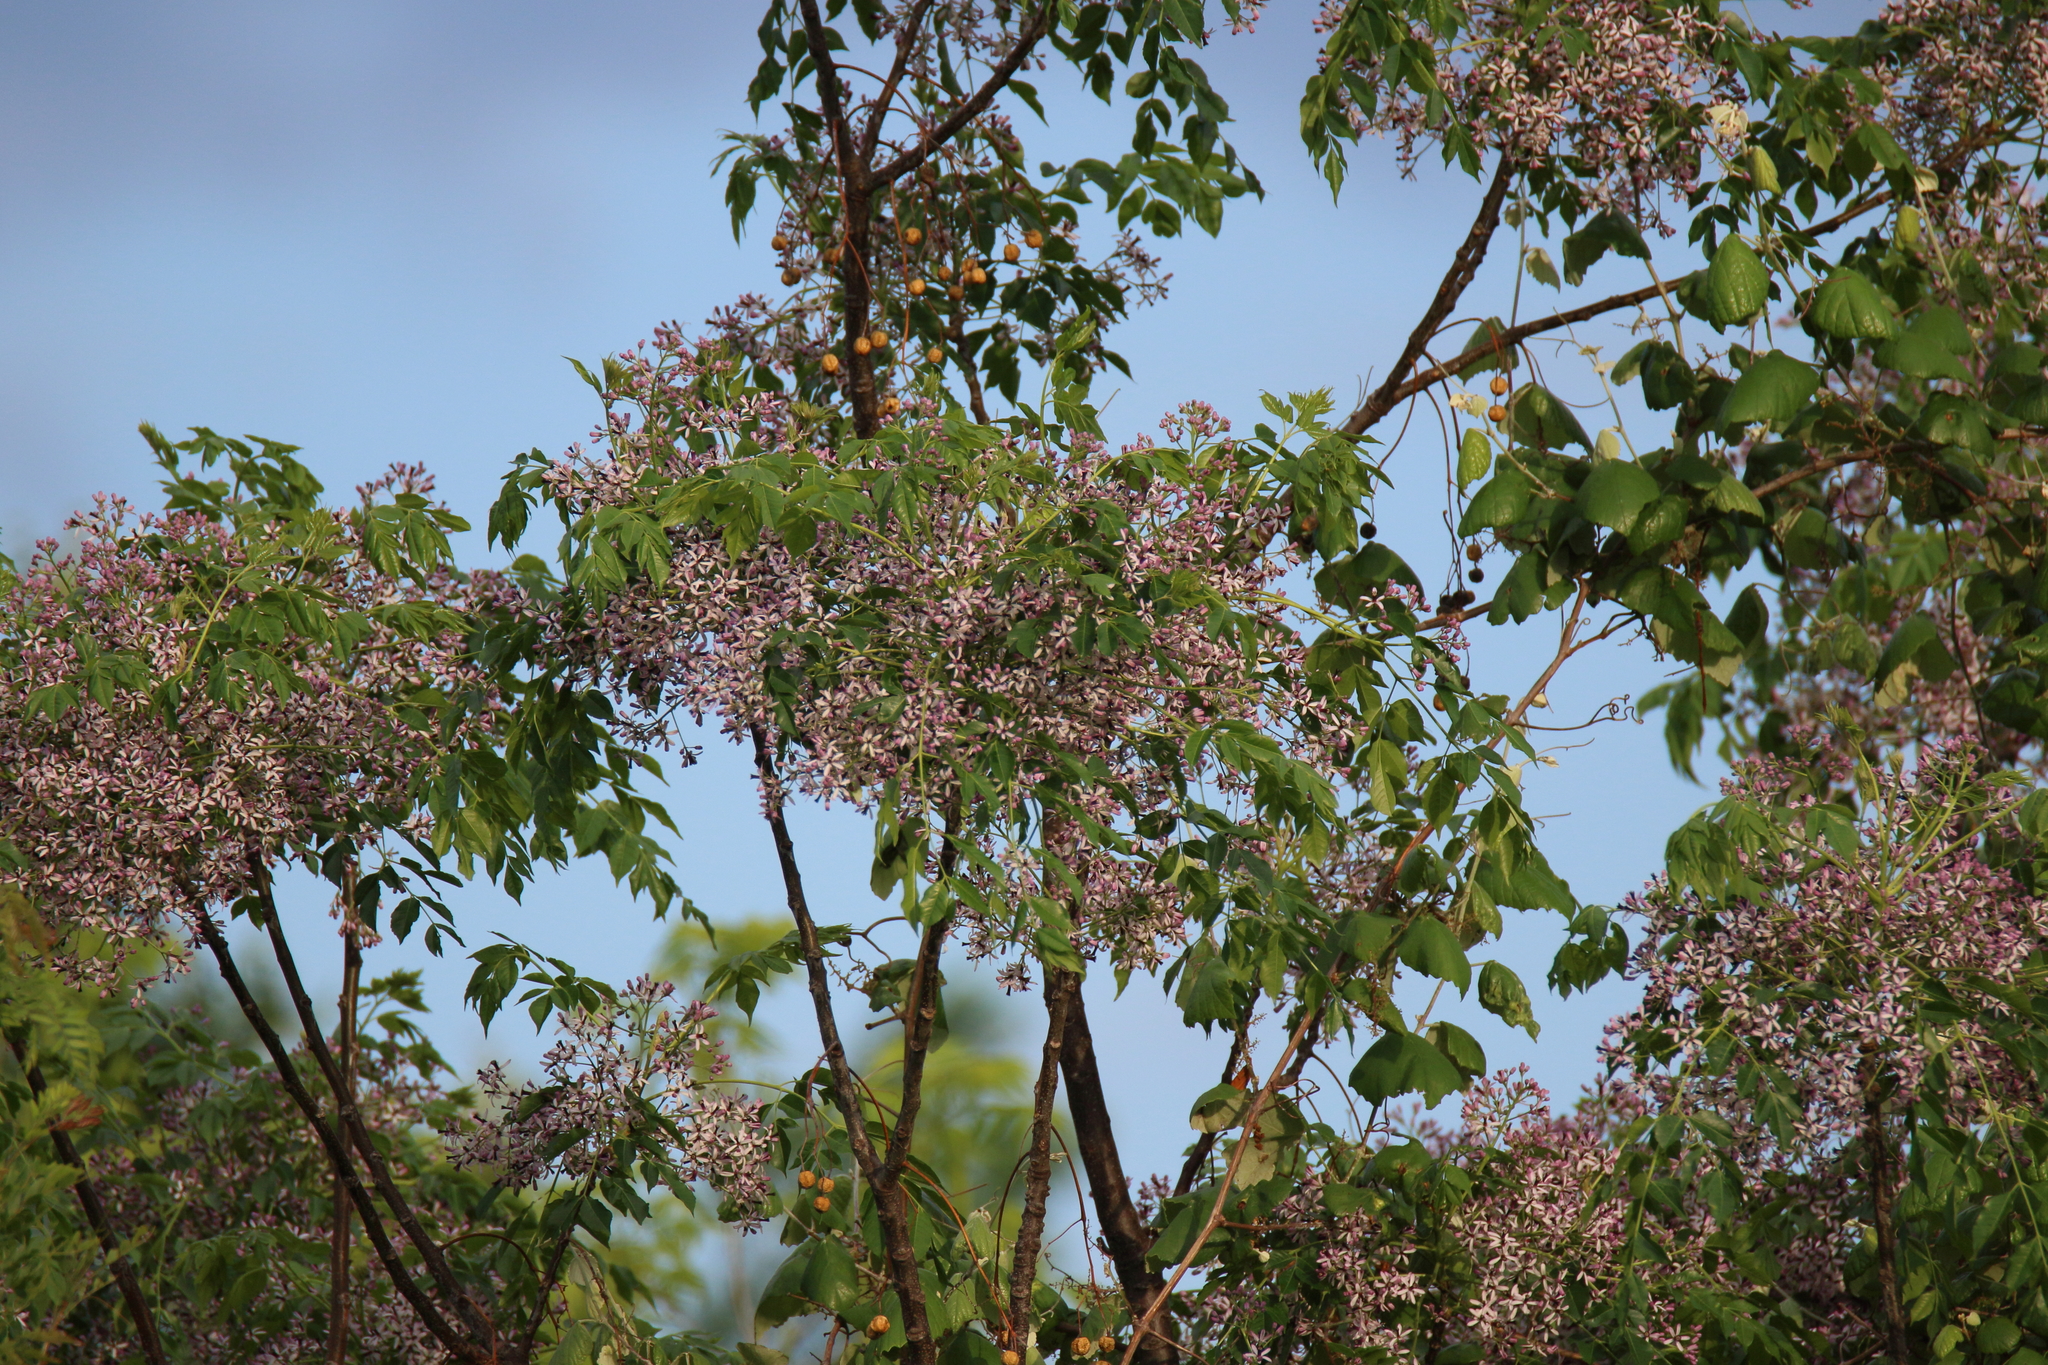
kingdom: Plantae
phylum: Tracheophyta
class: Magnoliopsida
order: Sapindales
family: Meliaceae
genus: Melia
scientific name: Melia azedarach
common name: Chinaberrytree
